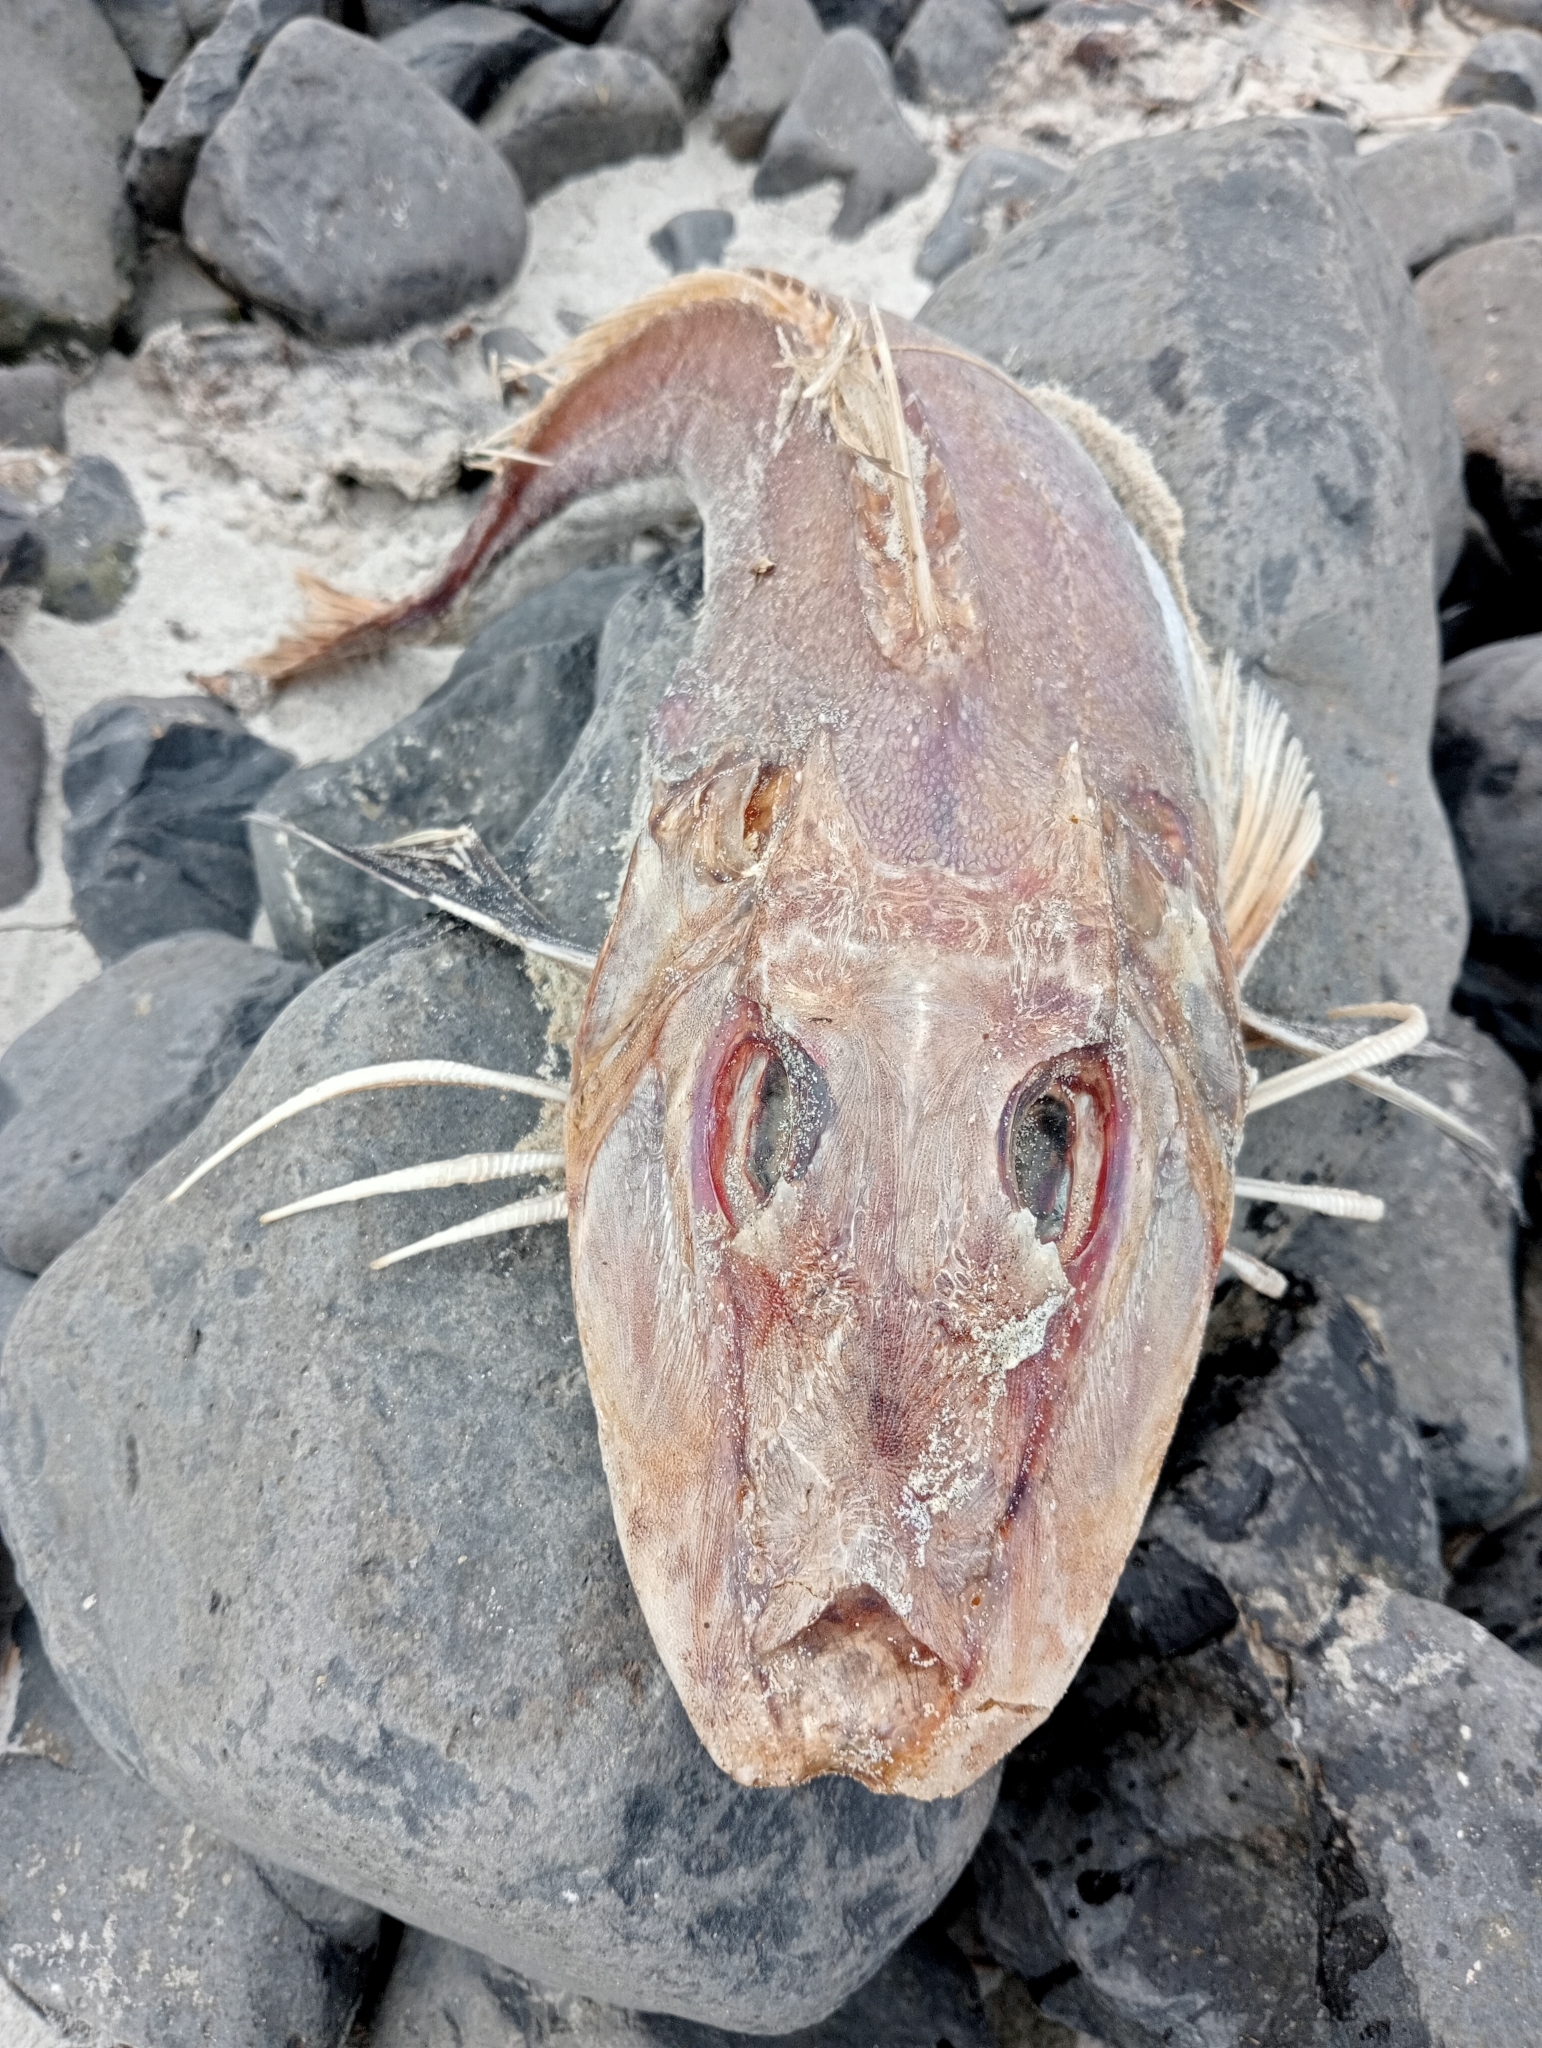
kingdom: Animalia
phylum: Chordata
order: Scorpaeniformes
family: Triglidae
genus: Chelidonichthys
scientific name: Chelidonichthys kumu
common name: Bluefin gurnard
